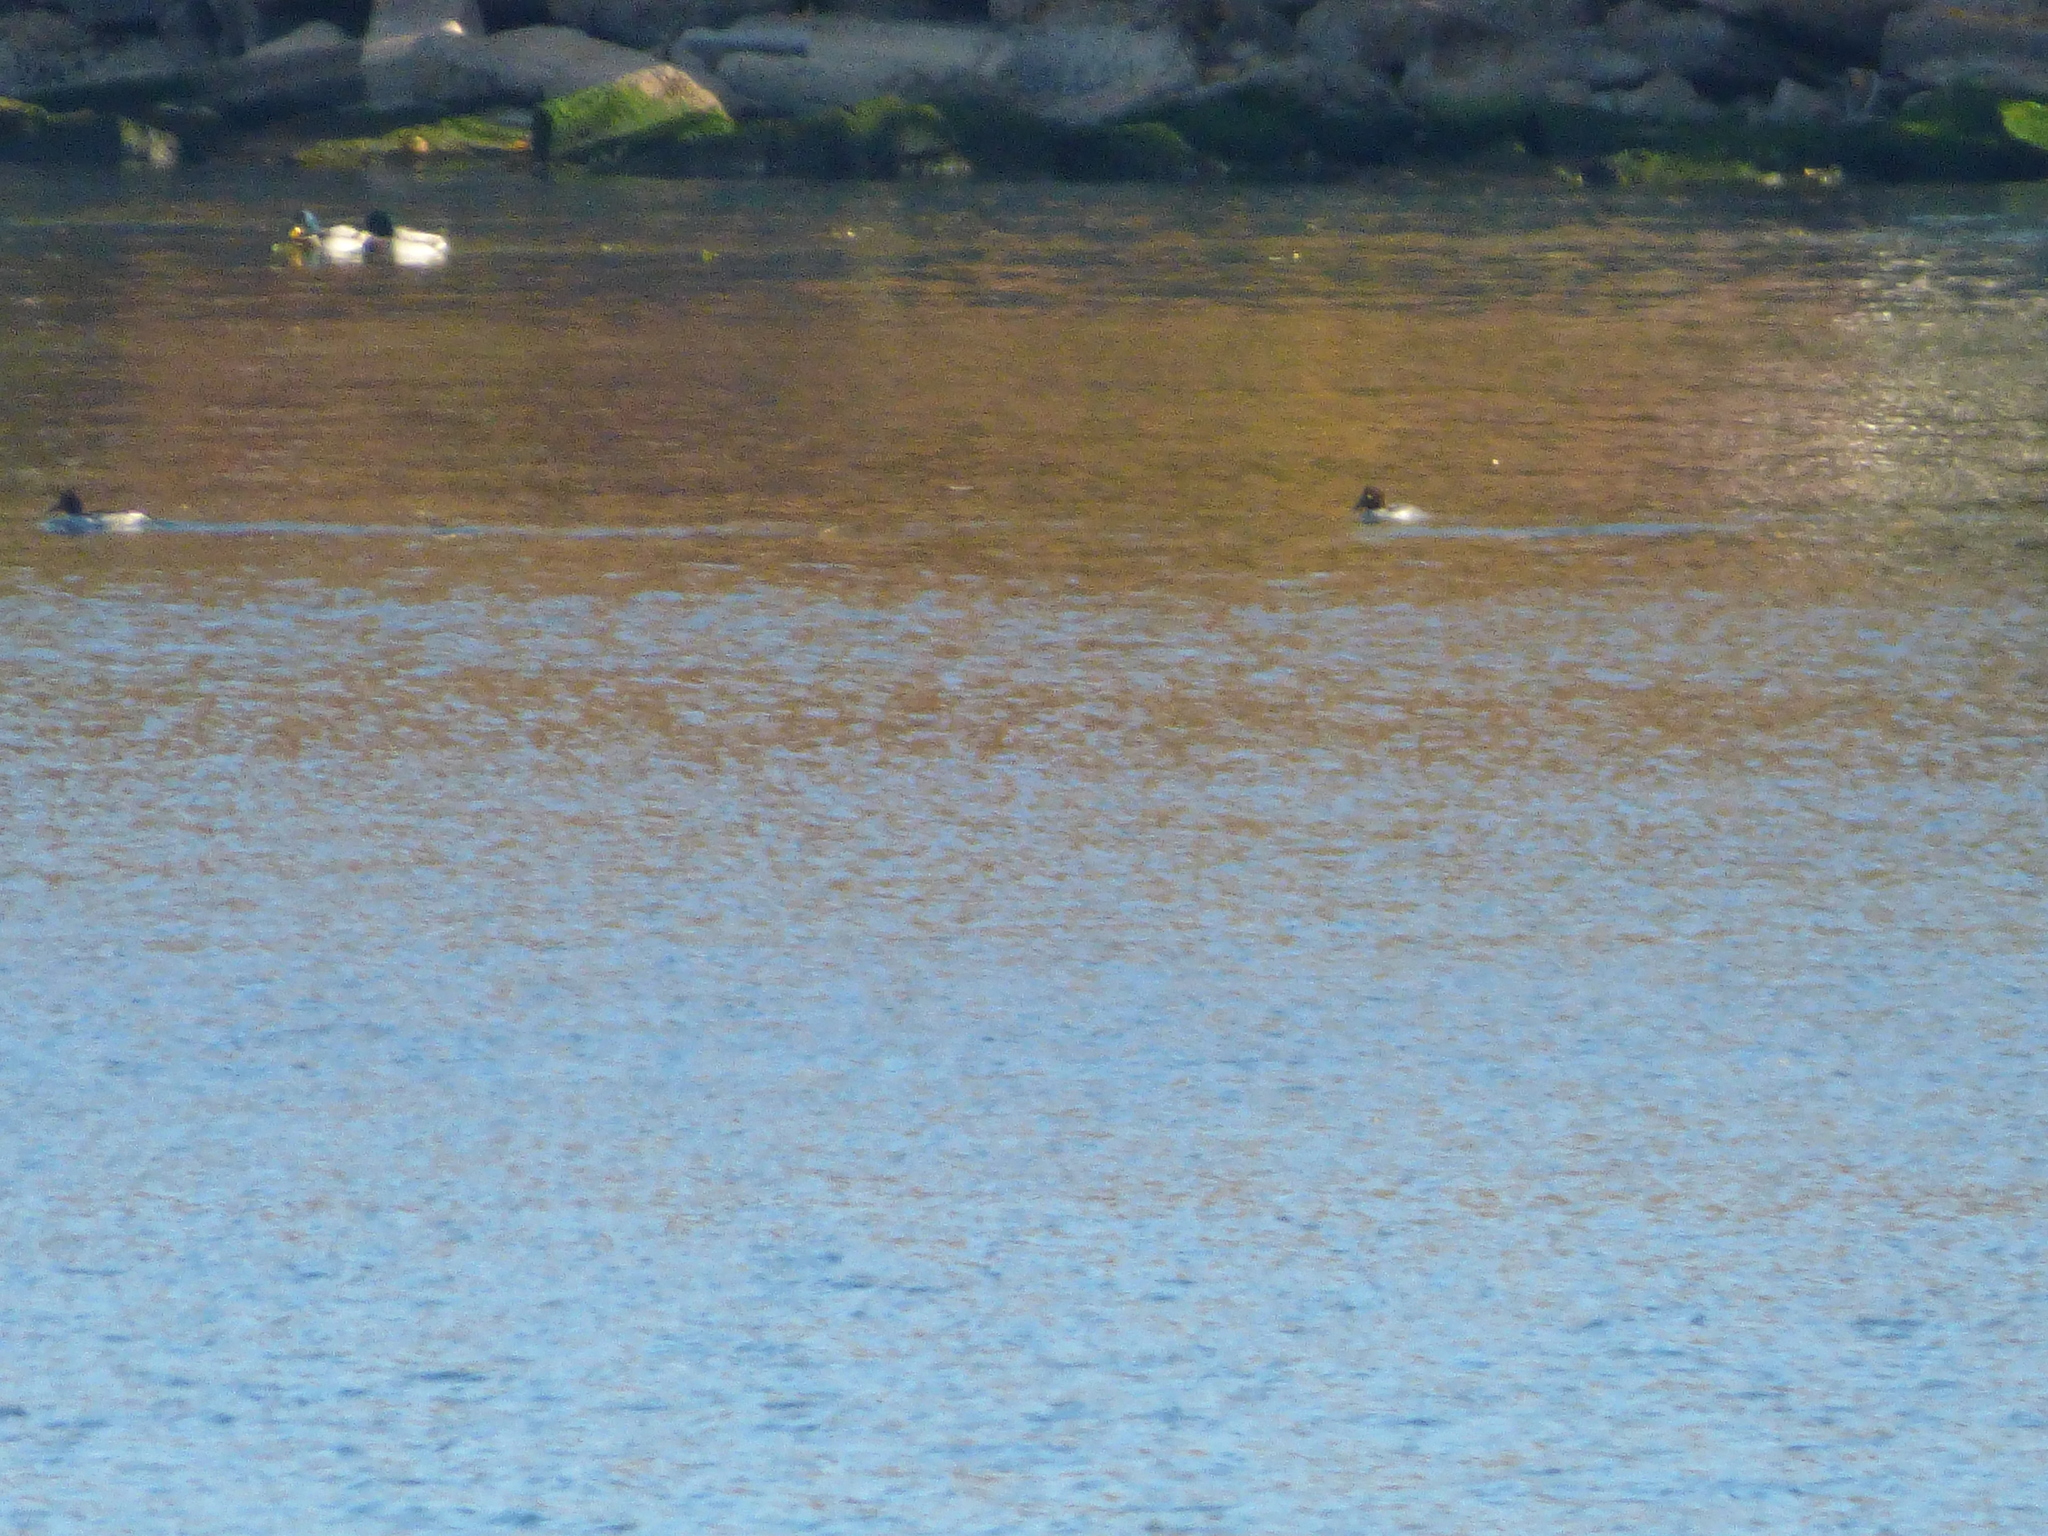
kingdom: Animalia
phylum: Chordata
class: Aves
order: Anseriformes
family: Anatidae
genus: Bucephala
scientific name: Bucephala clangula
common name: Common goldeneye
